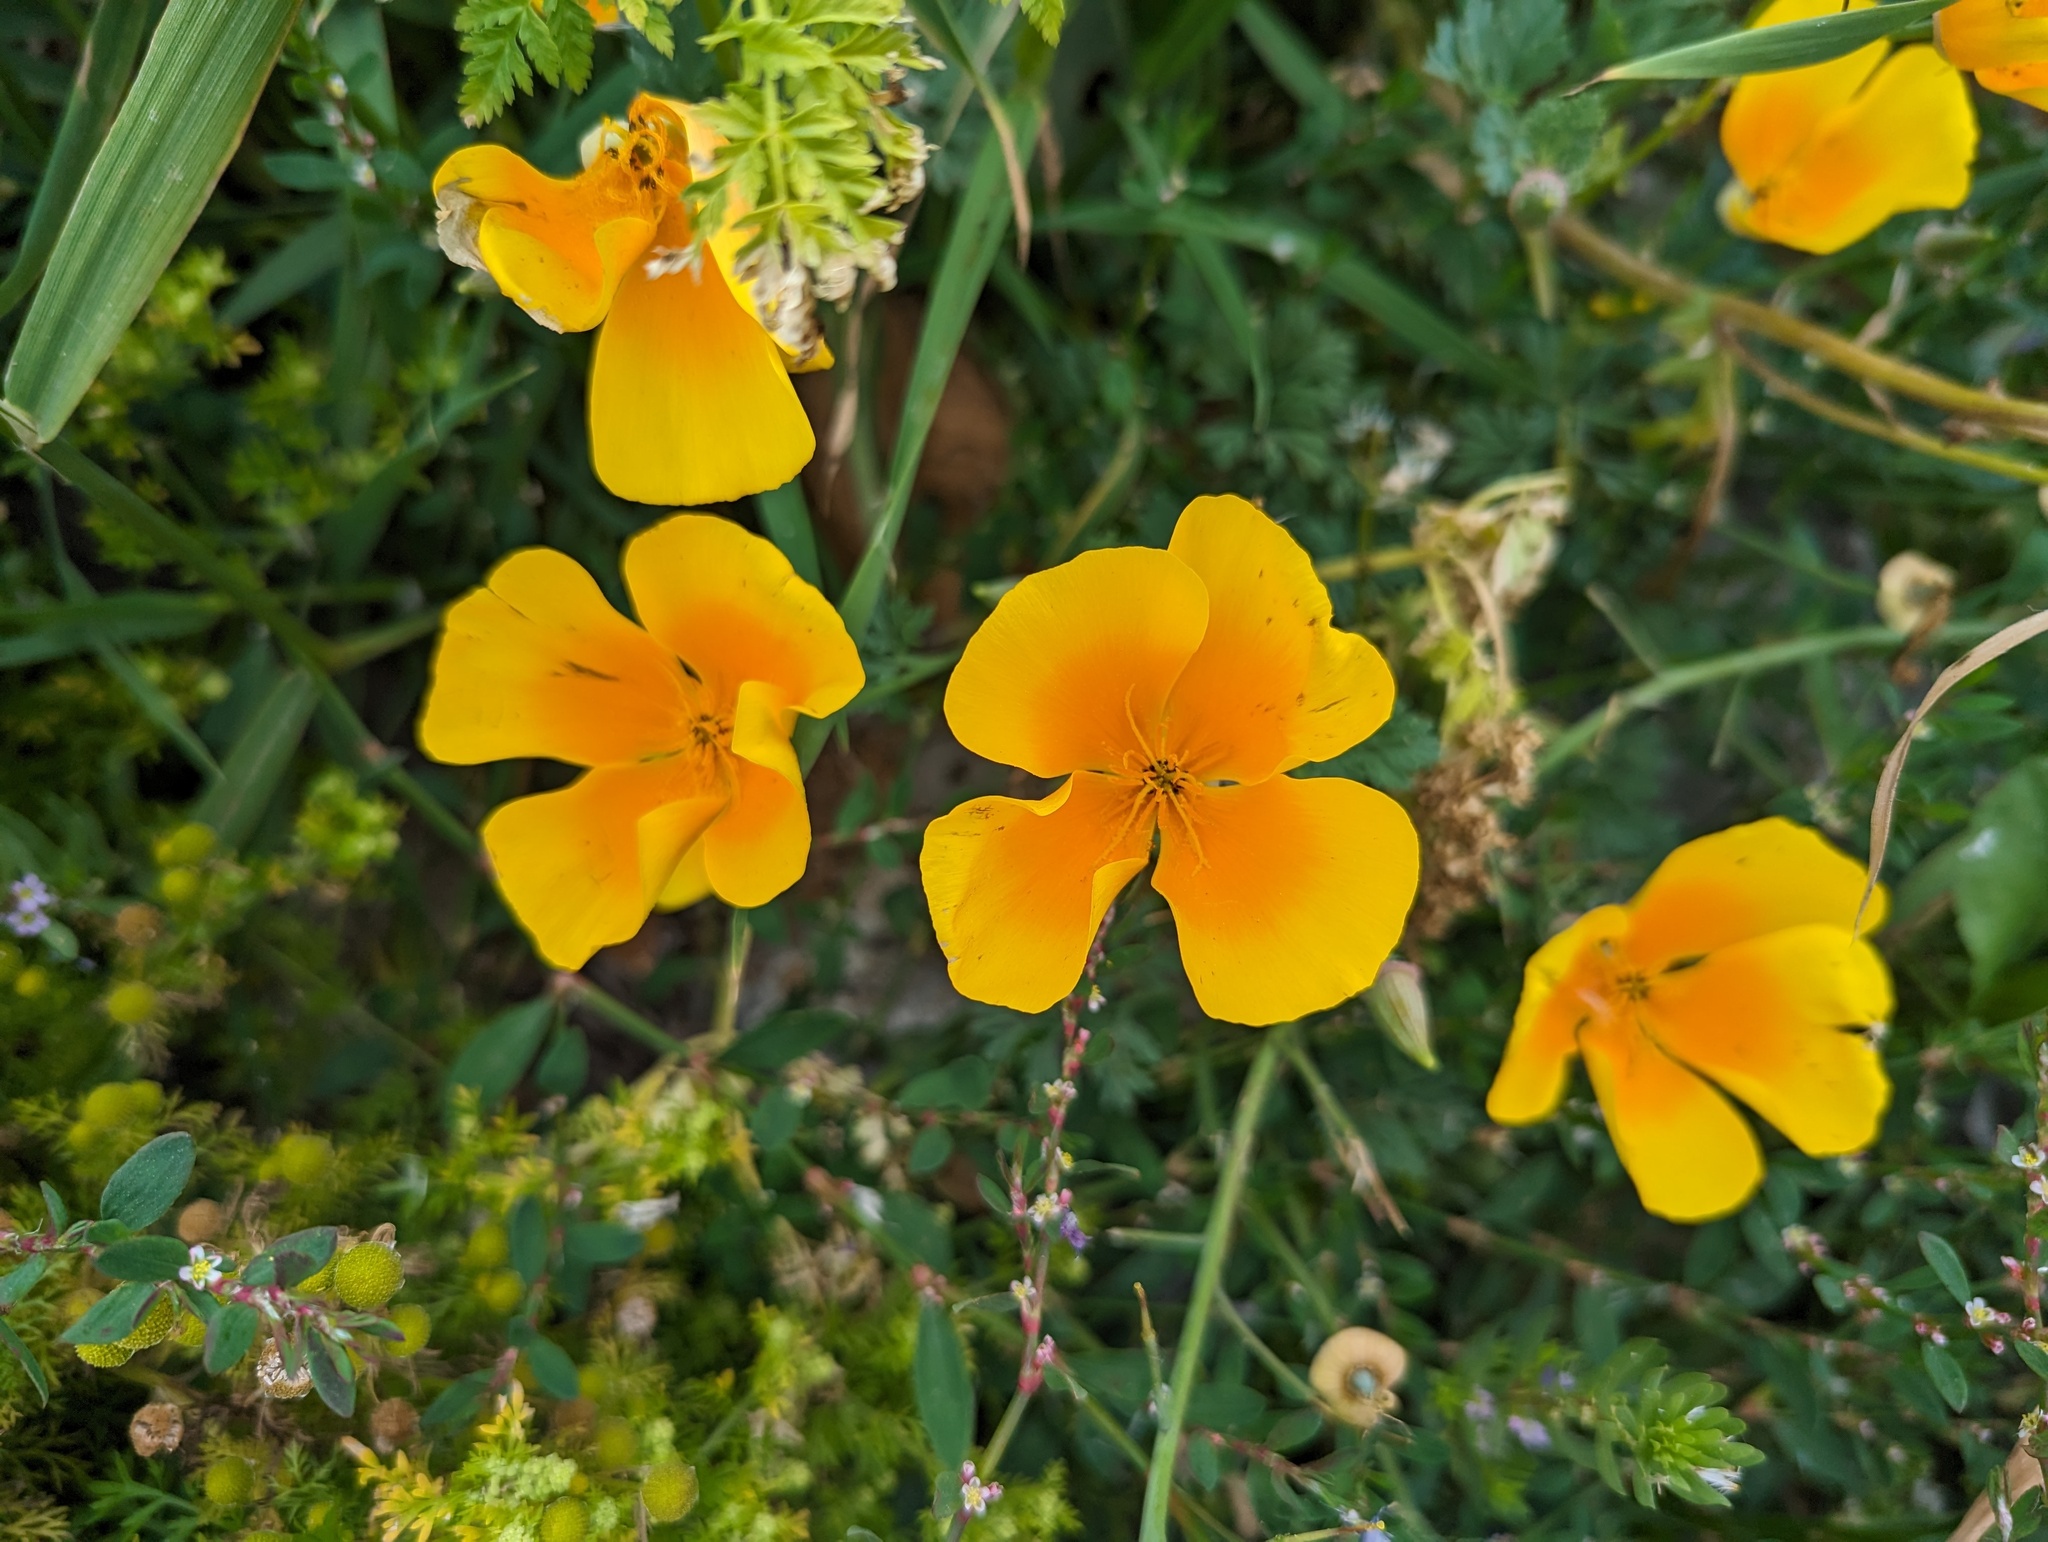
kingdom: Plantae
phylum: Tracheophyta
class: Magnoliopsida
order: Ranunculales
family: Papaveraceae
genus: Eschscholzia
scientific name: Eschscholzia californica
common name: California poppy
